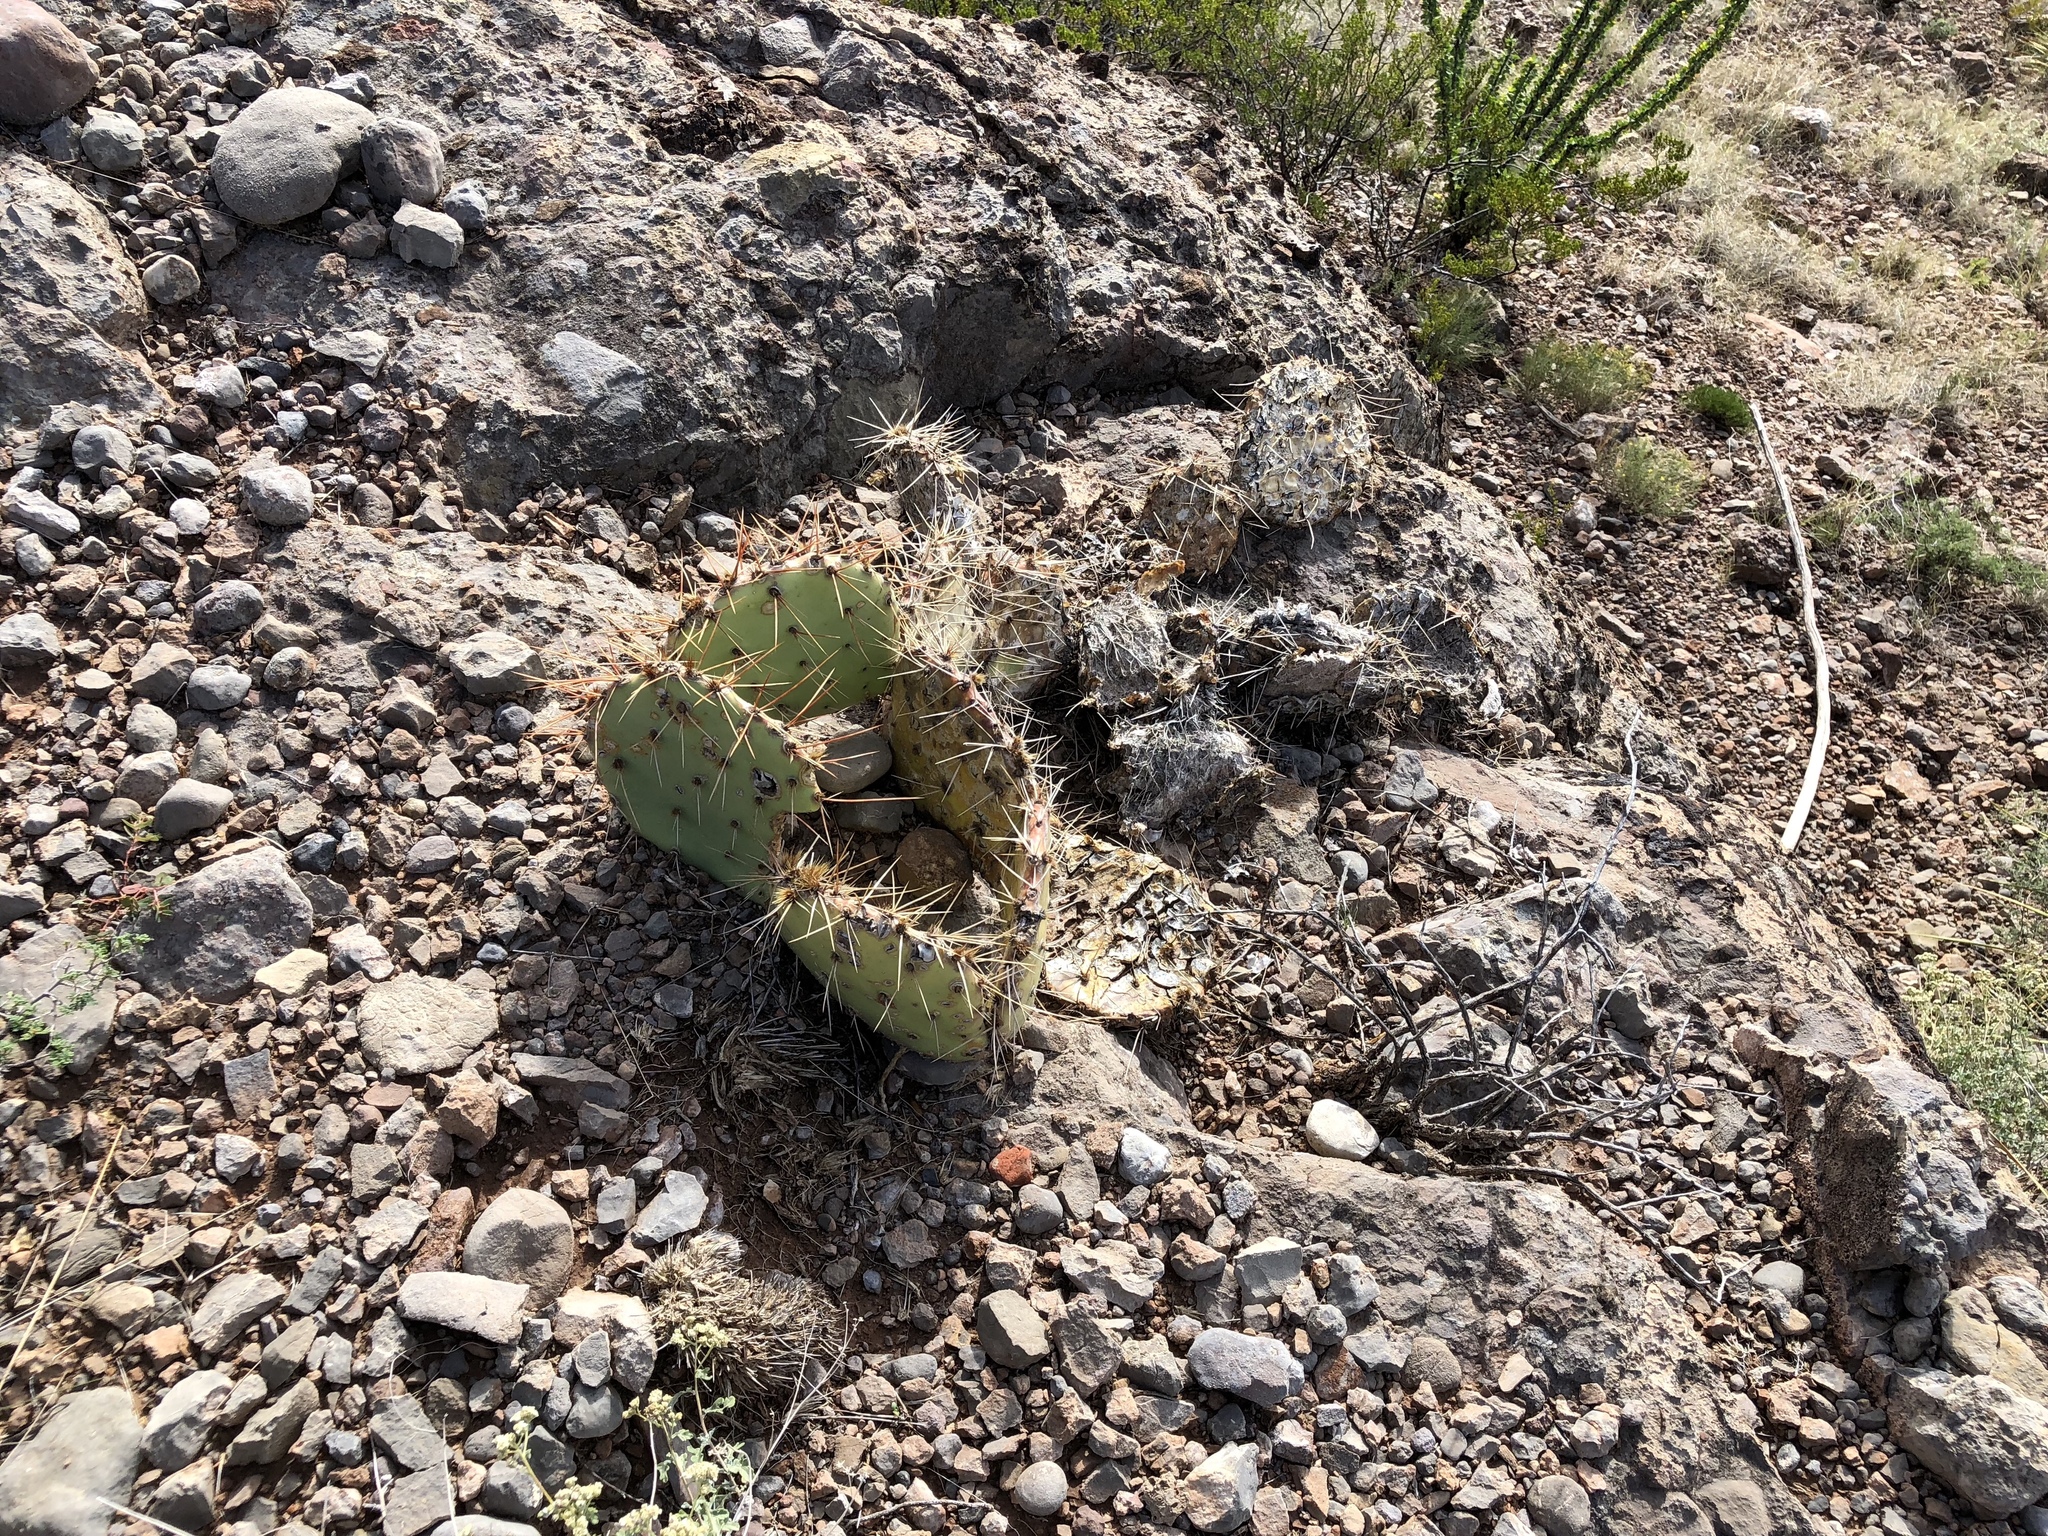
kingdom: Plantae
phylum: Tracheophyta
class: Magnoliopsida
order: Caryophyllales
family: Cactaceae
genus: Opuntia
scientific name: Opuntia phaeacantha
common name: New mexico prickly-pear
